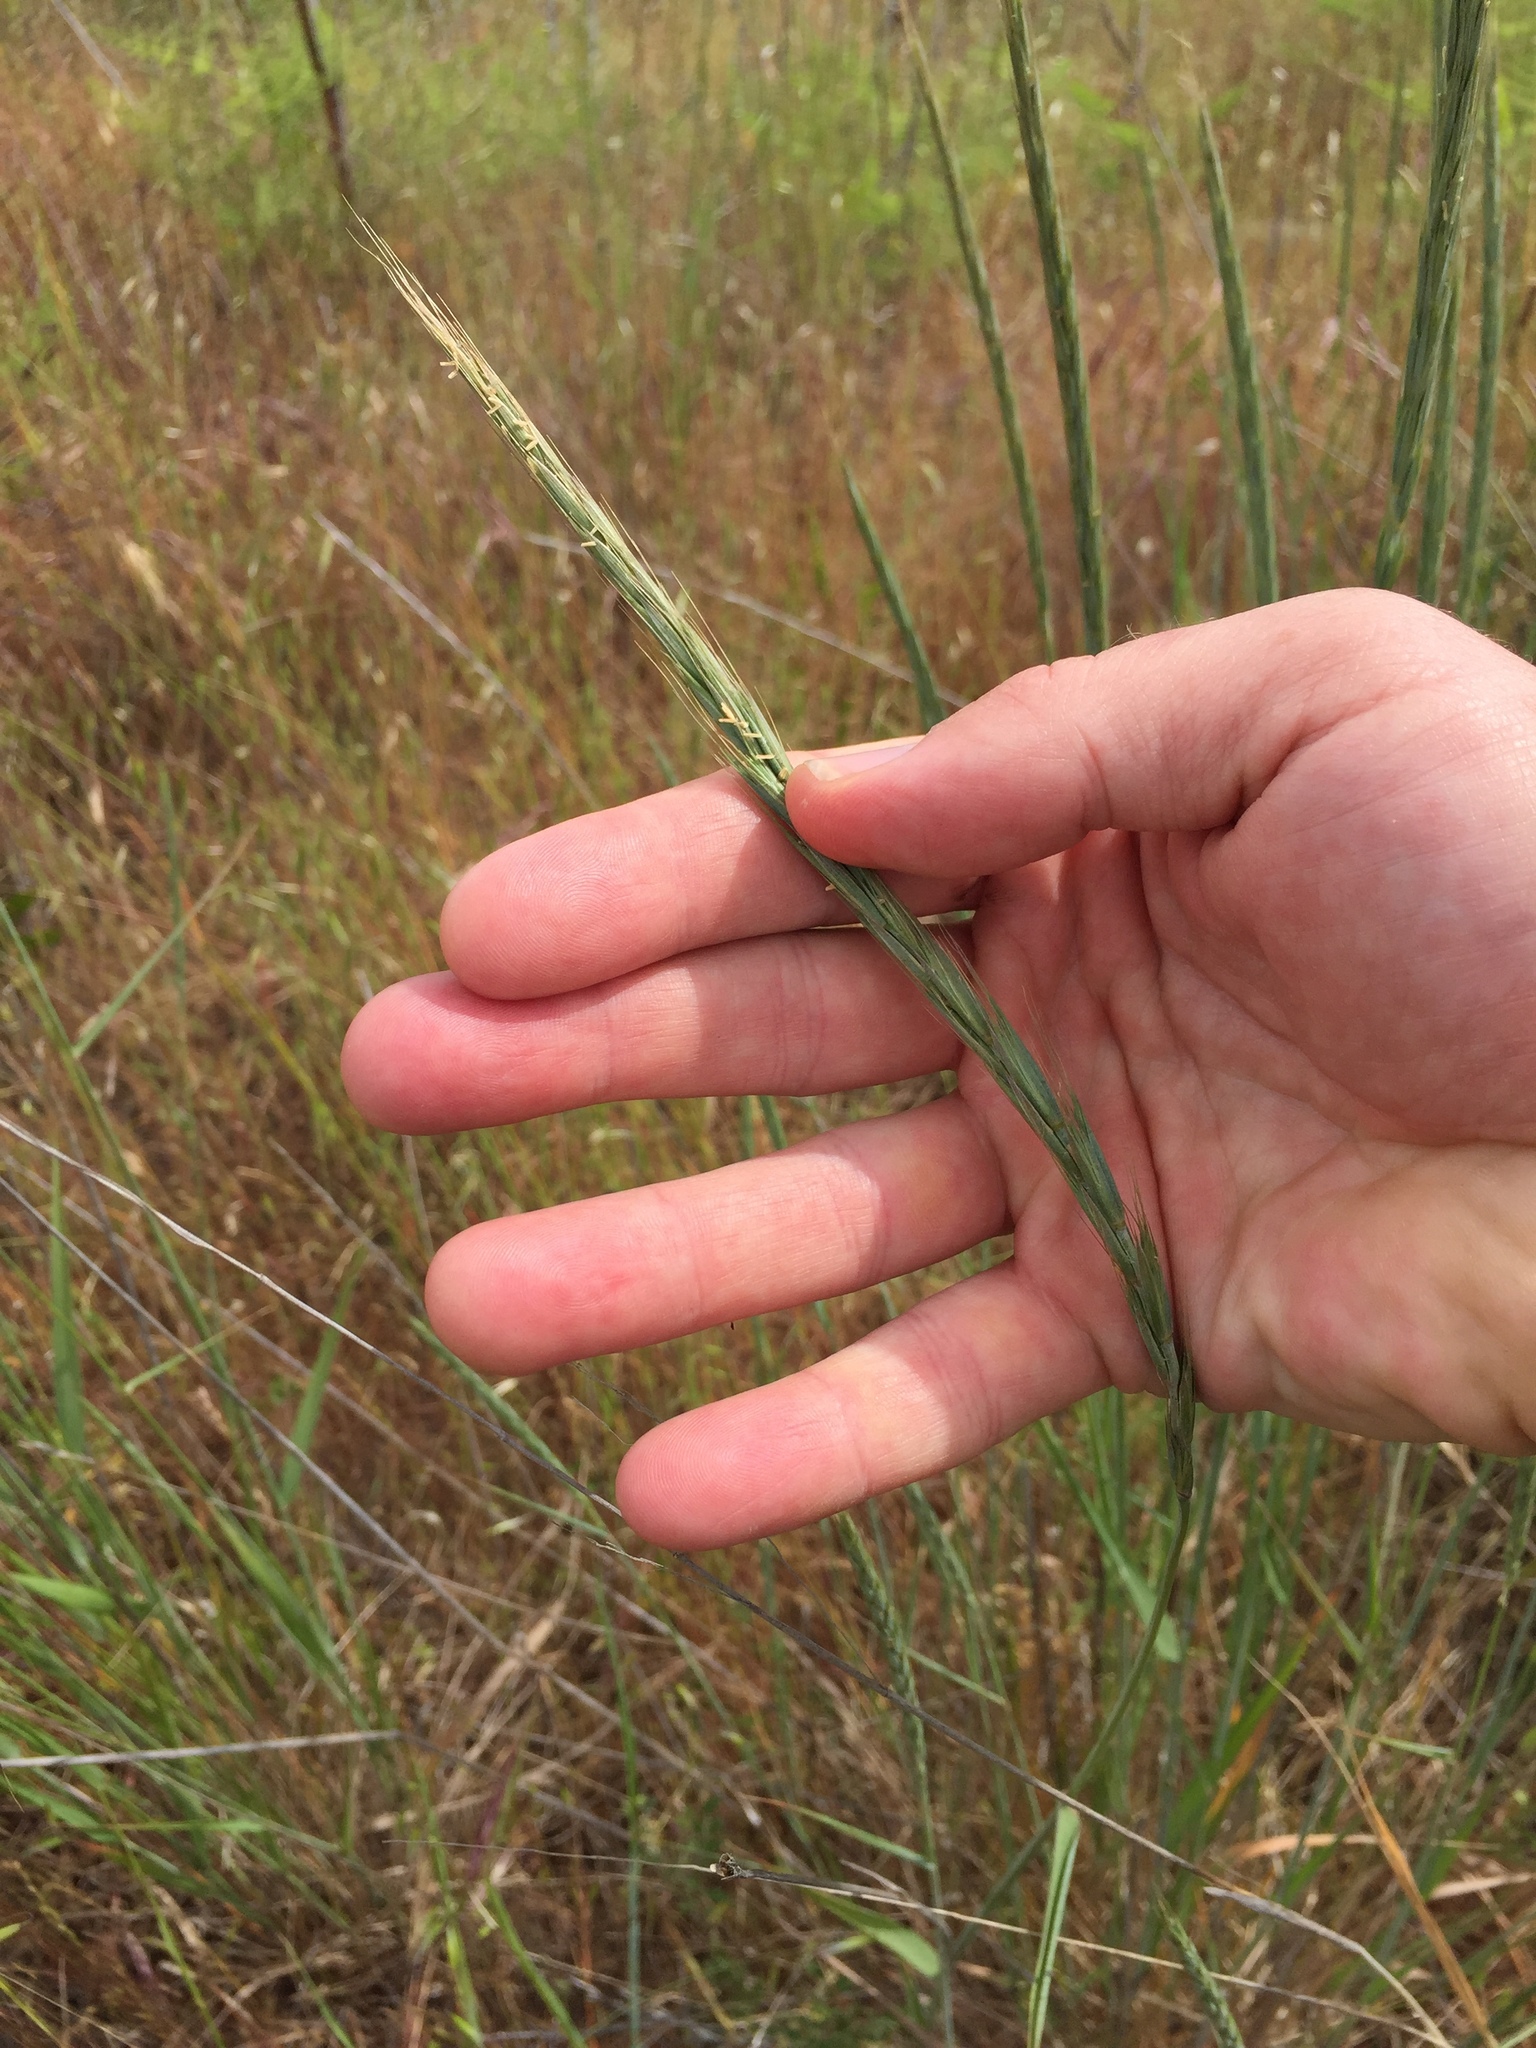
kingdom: Plantae
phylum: Tracheophyta
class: Liliopsida
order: Poales
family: Poaceae
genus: Elymus
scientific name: Elymus glaucus
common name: Blue wild rye
